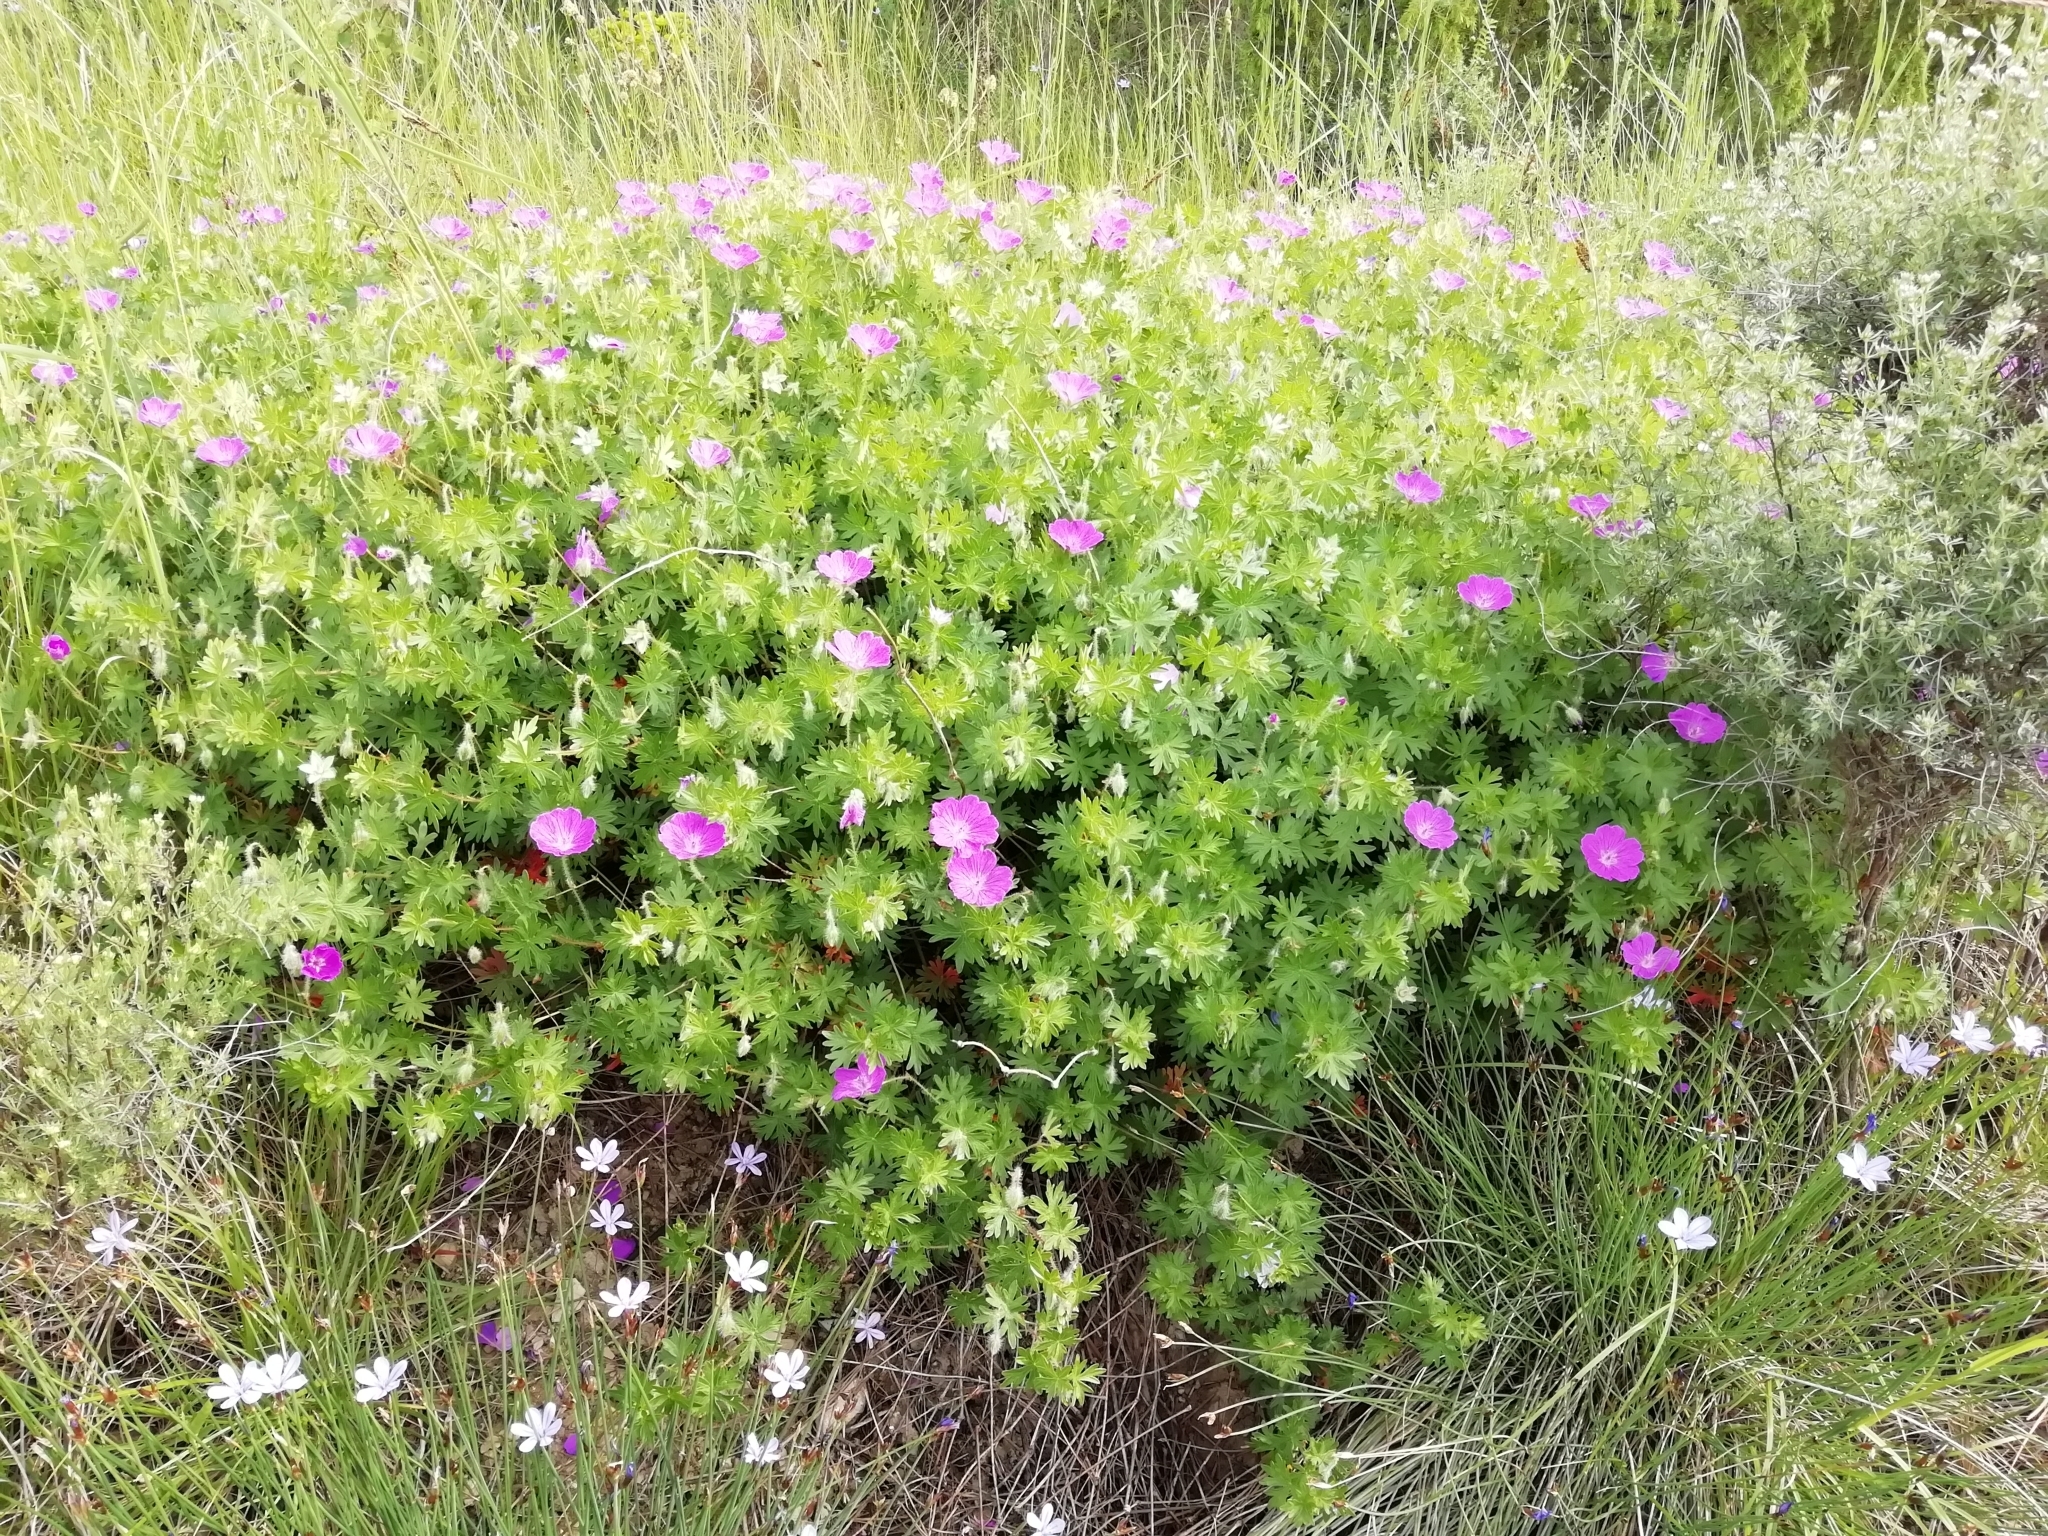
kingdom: Plantae
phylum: Tracheophyta
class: Magnoliopsida
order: Geraniales
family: Geraniaceae
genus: Geranium
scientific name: Geranium sanguineum
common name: Bloody crane's-bill
